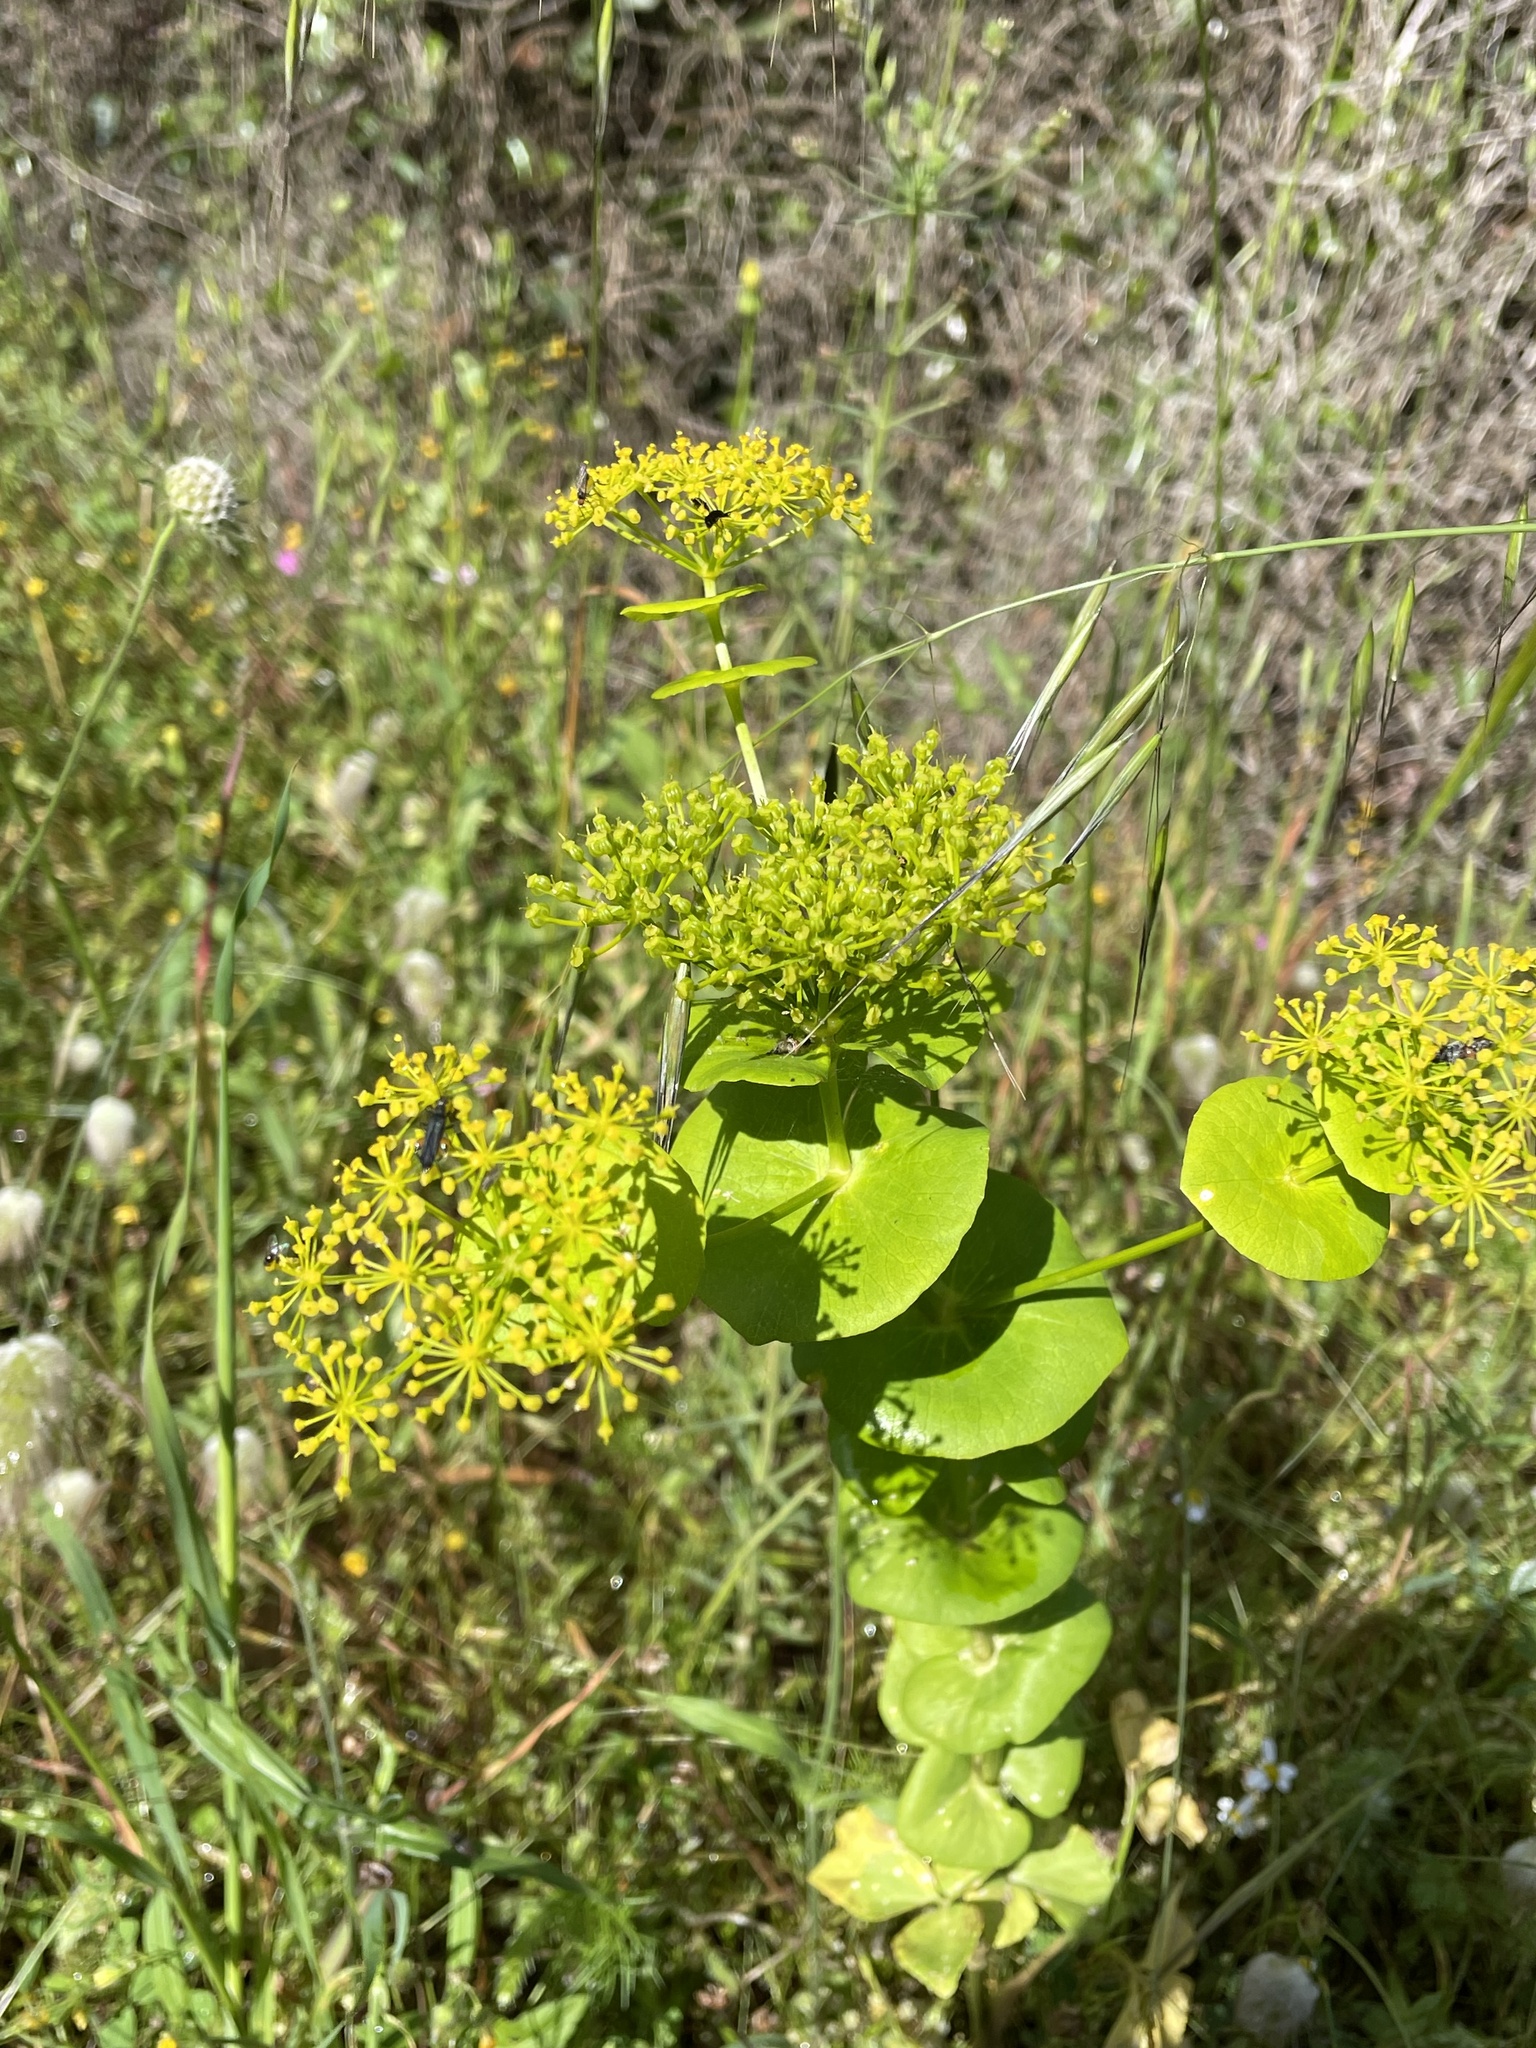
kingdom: Plantae
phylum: Tracheophyta
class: Magnoliopsida
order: Apiales
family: Apiaceae
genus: Smyrnium
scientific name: Smyrnium perfoliatum
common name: Perfoliate alexanders
